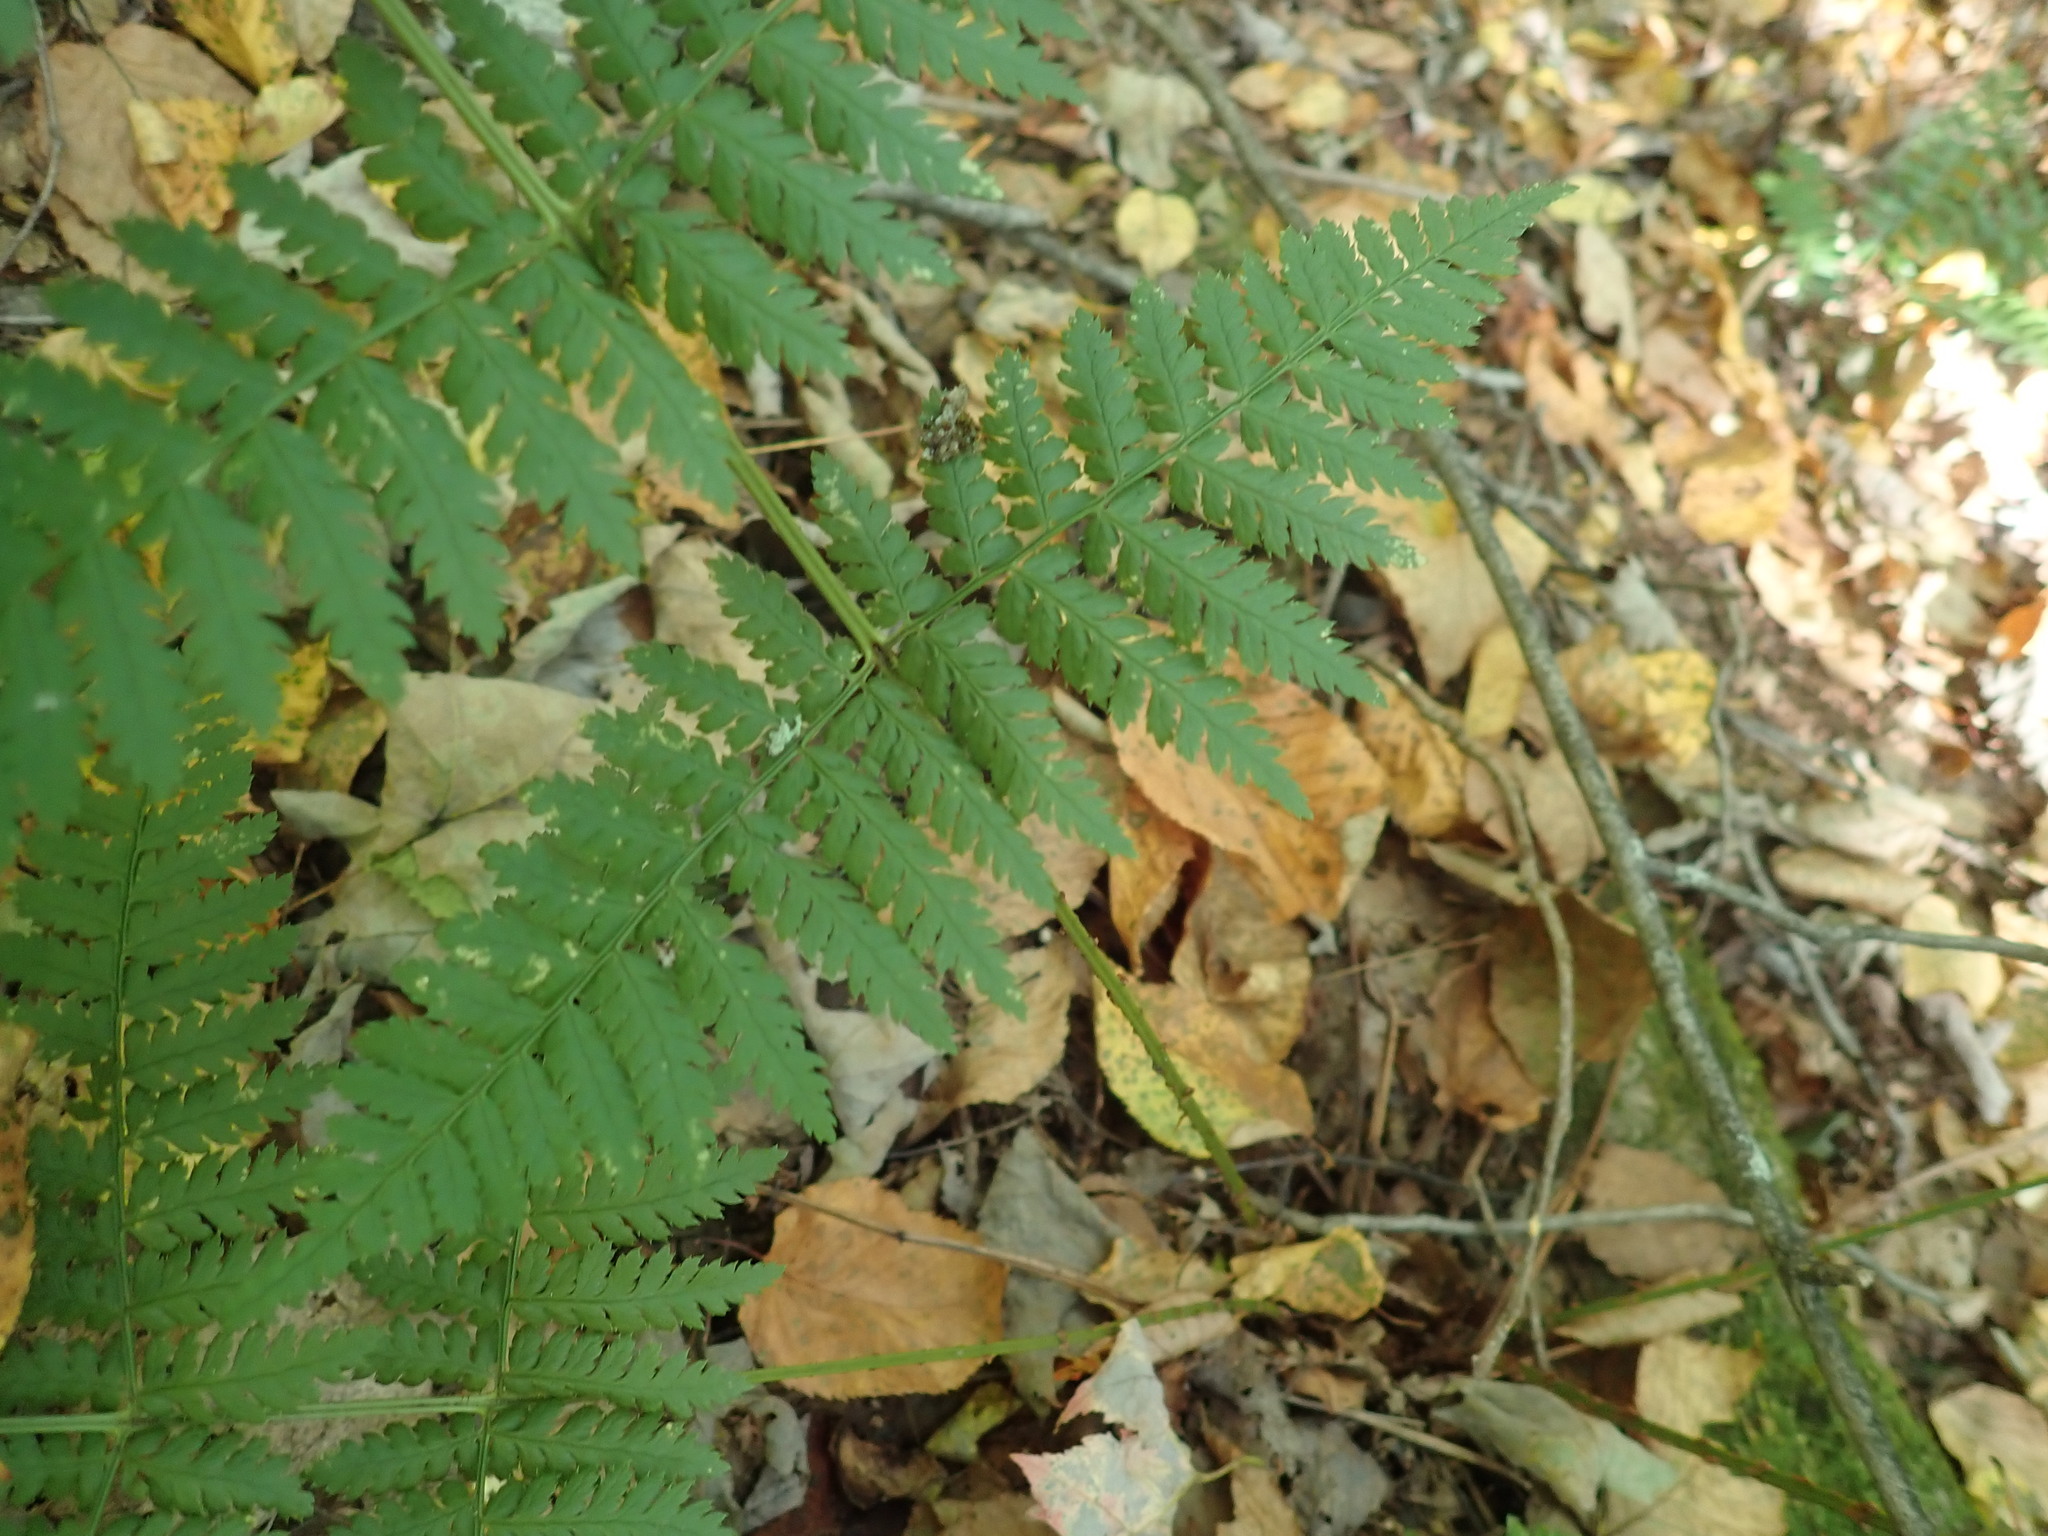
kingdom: Plantae
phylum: Tracheophyta
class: Polypodiopsida
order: Polypodiales
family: Dryopteridaceae
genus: Dryopteris
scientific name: Dryopteris intermedia
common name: Evergreen wood fern
